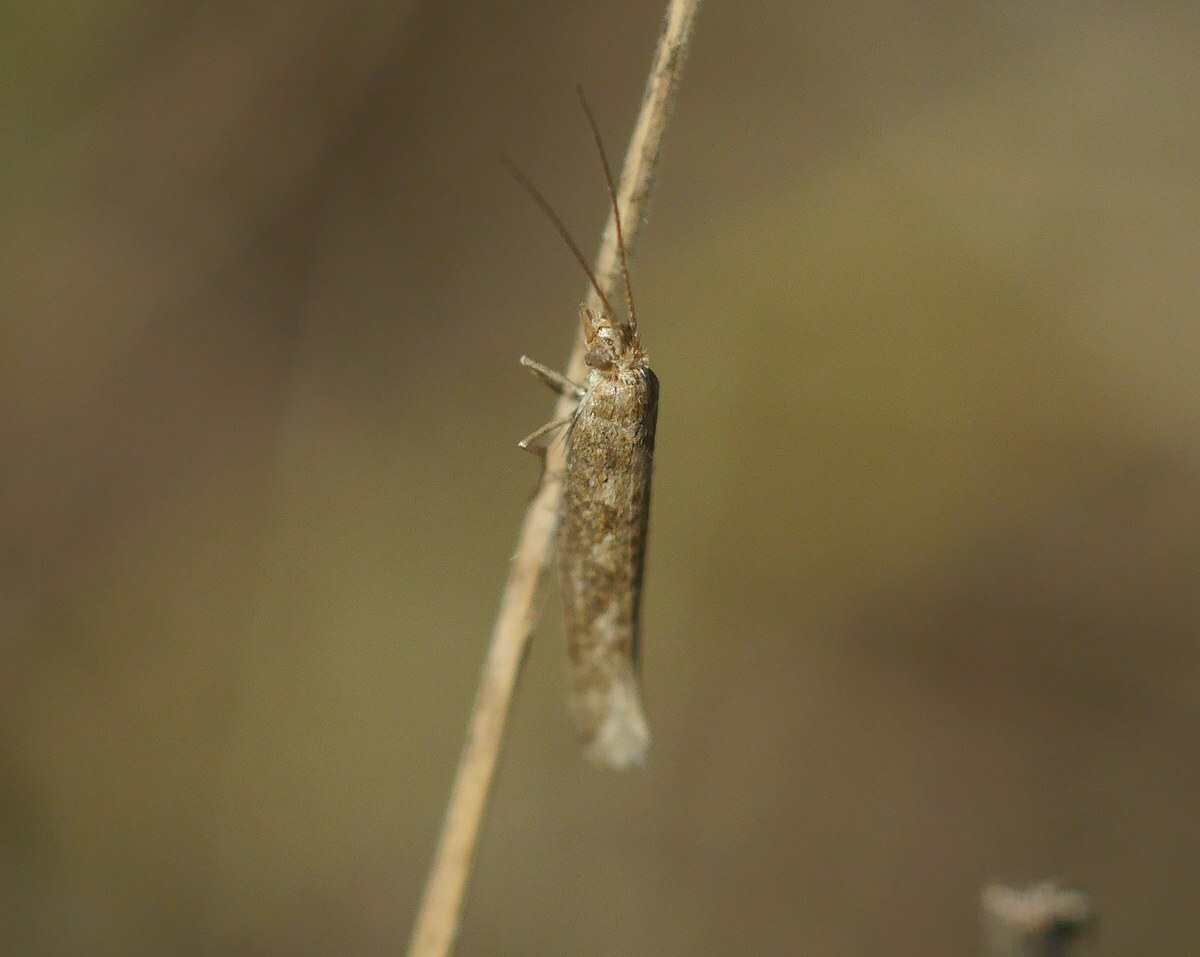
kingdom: Animalia
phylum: Arthropoda
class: Insecta
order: Lepidoptera
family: Plutellidae
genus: Plutella
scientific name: Plutella xylostella
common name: Diamond-back moth
